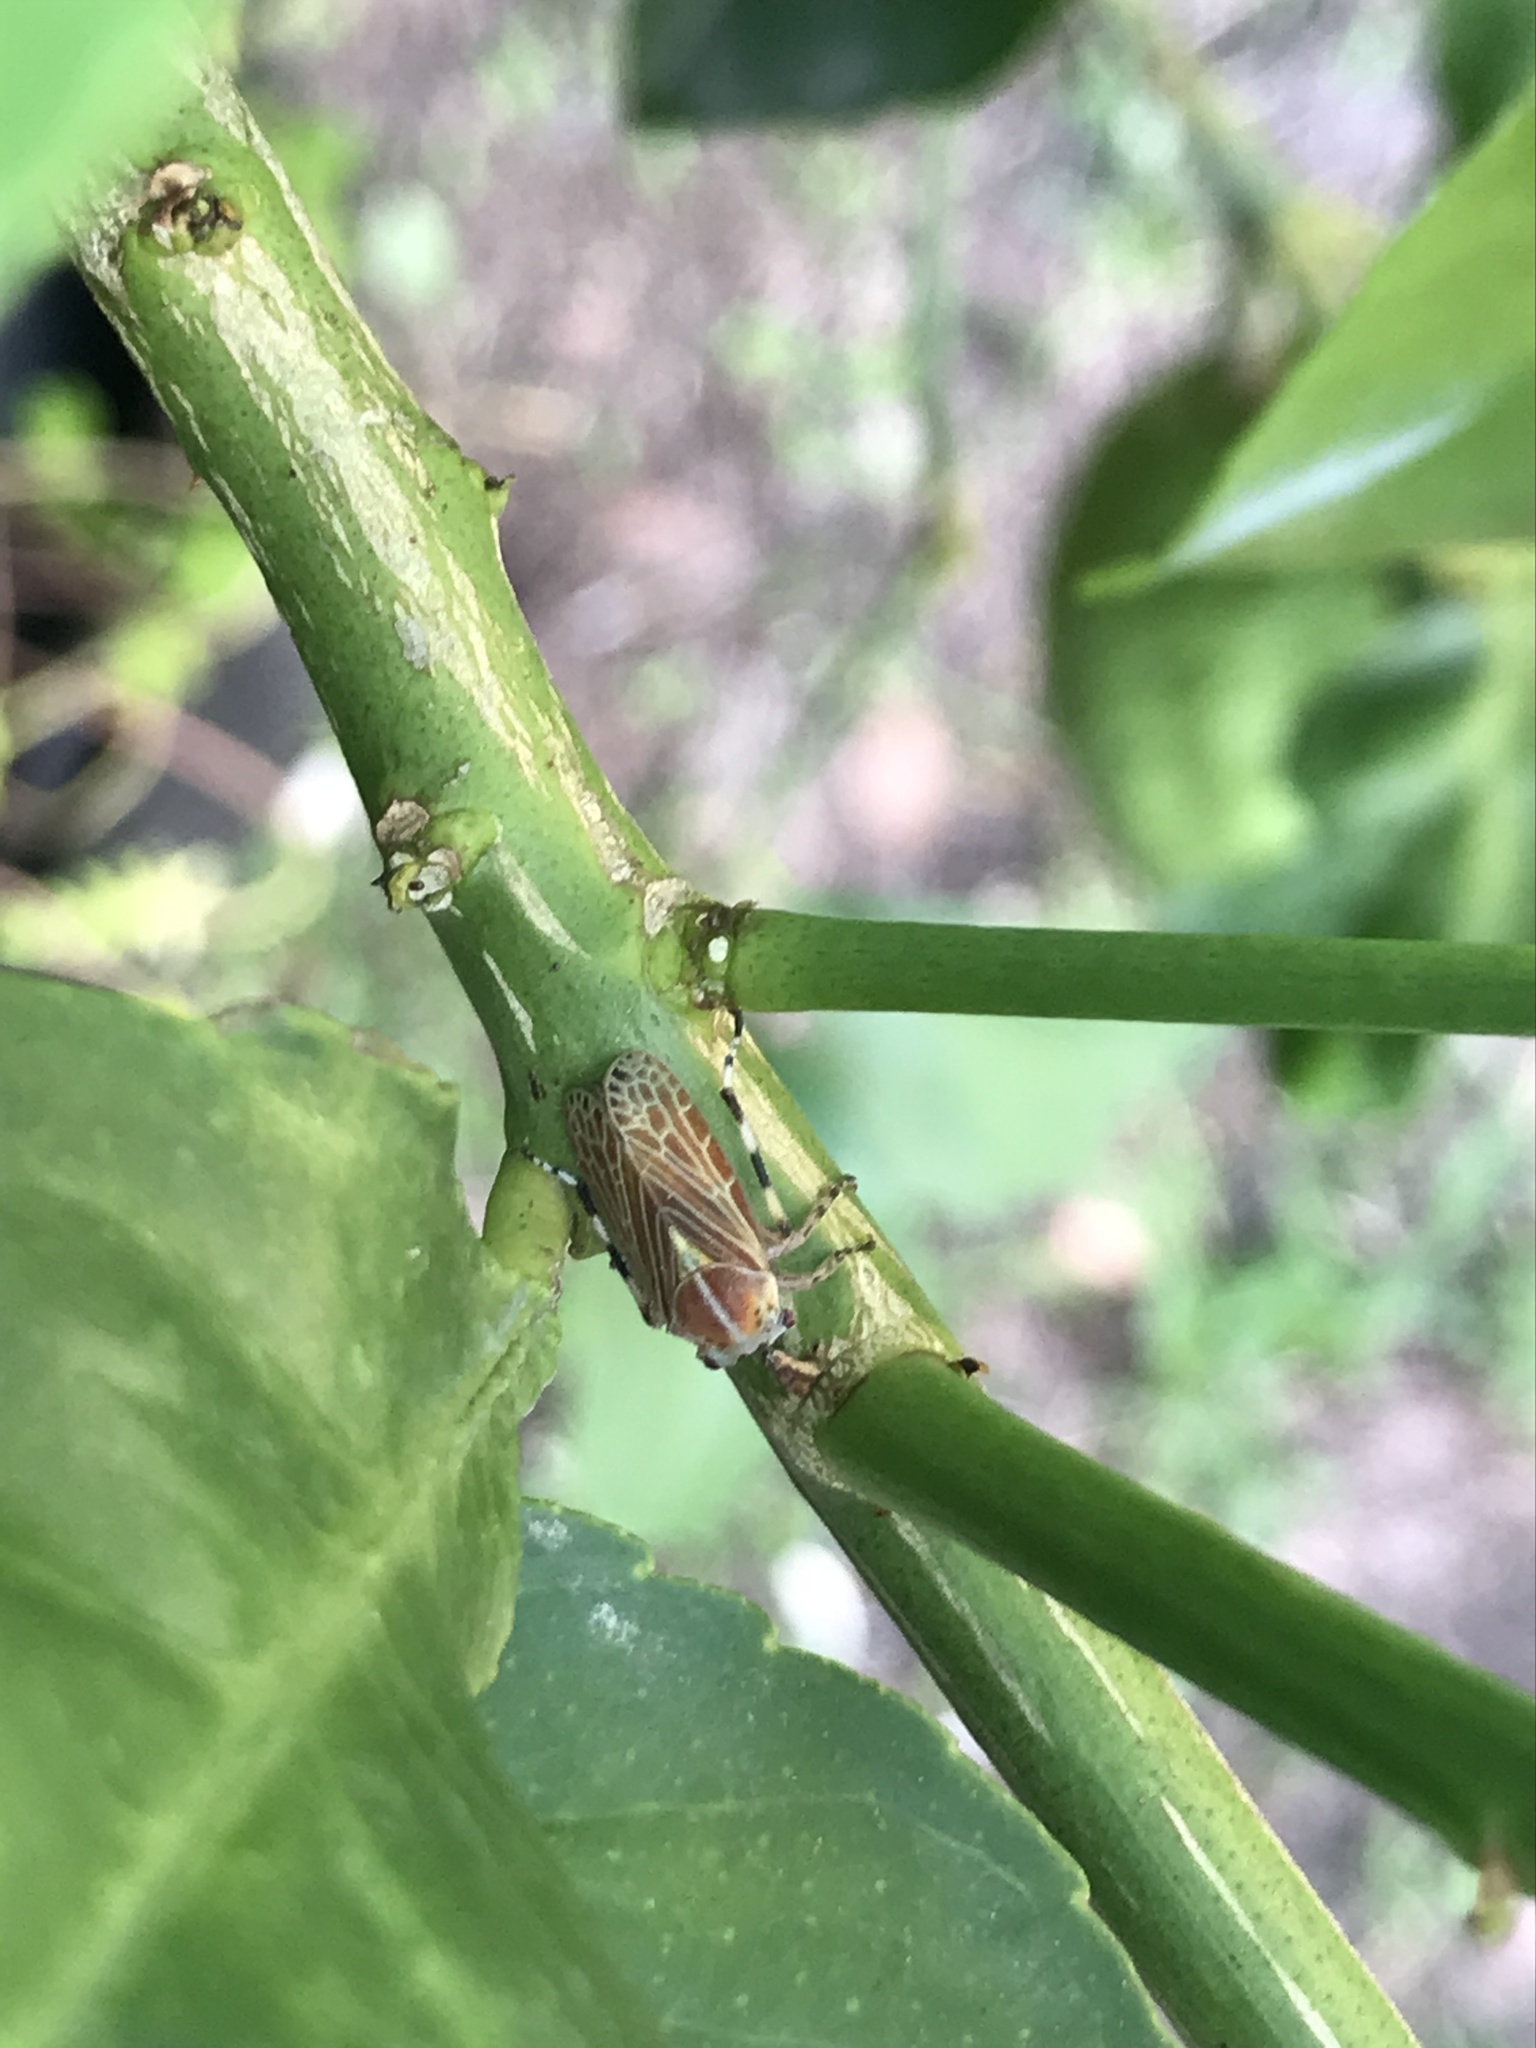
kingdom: Animalia
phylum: Arthropoda
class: Insecta
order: Hemiptera
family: Aetalionidae
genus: Aetalion
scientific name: Aetalion reticulatum
